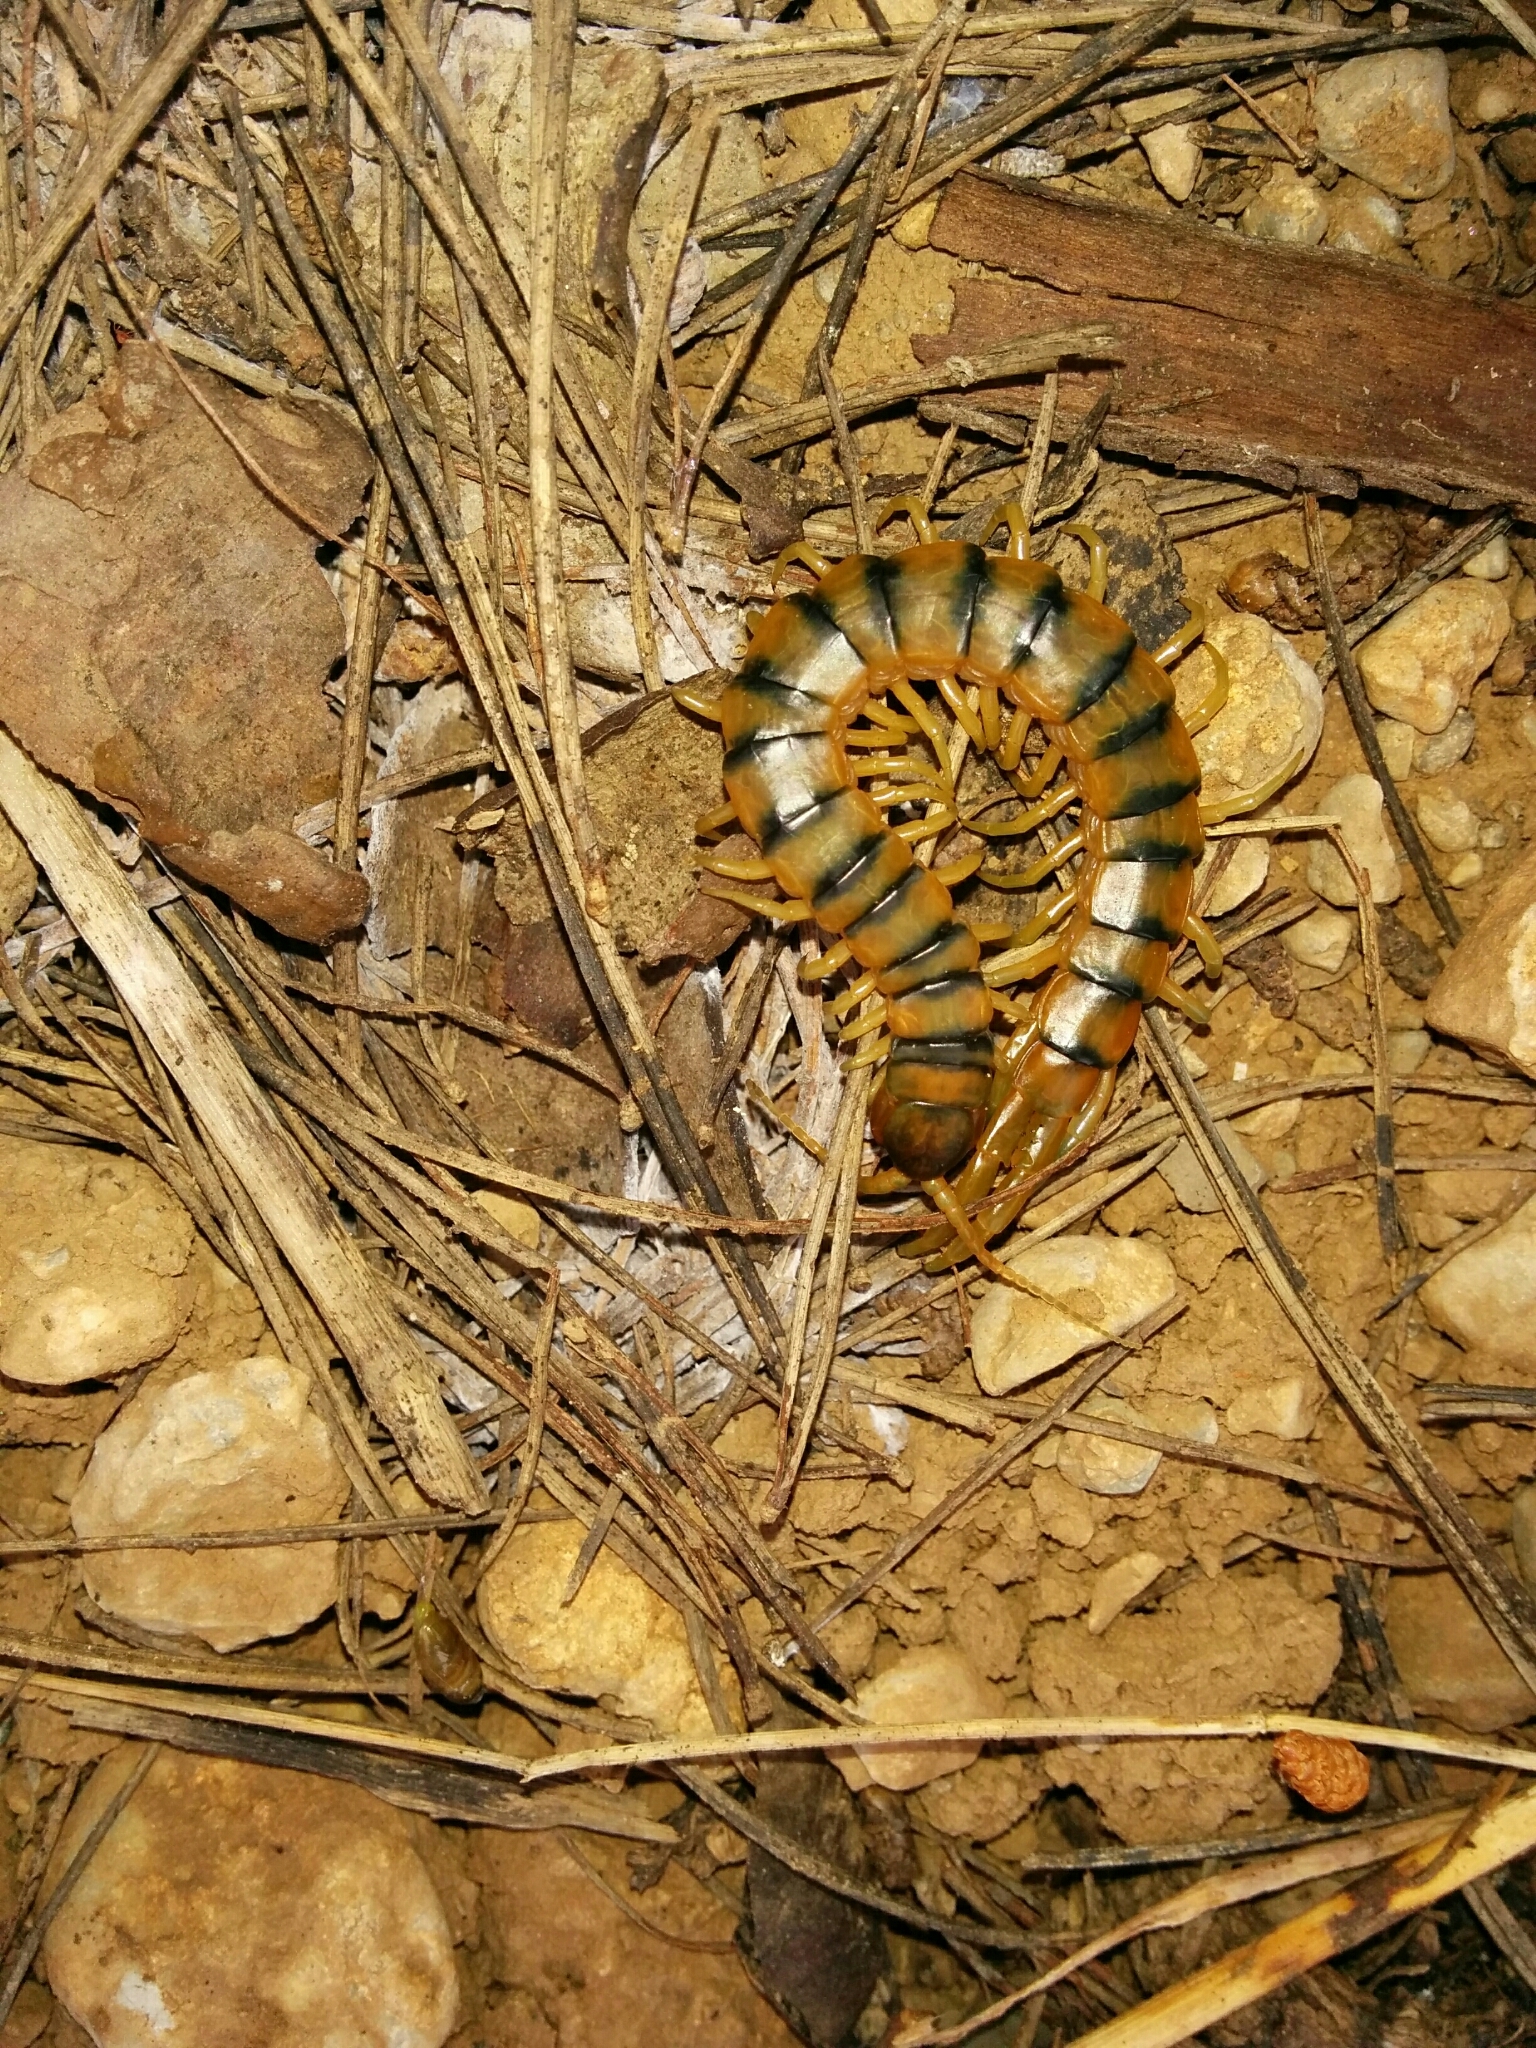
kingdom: Animalia
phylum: Arthropoda
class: Chilopoda
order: Scolopendromorpha
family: Scolopendridae
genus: Scolopendra
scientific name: Scolopendra cingulata
